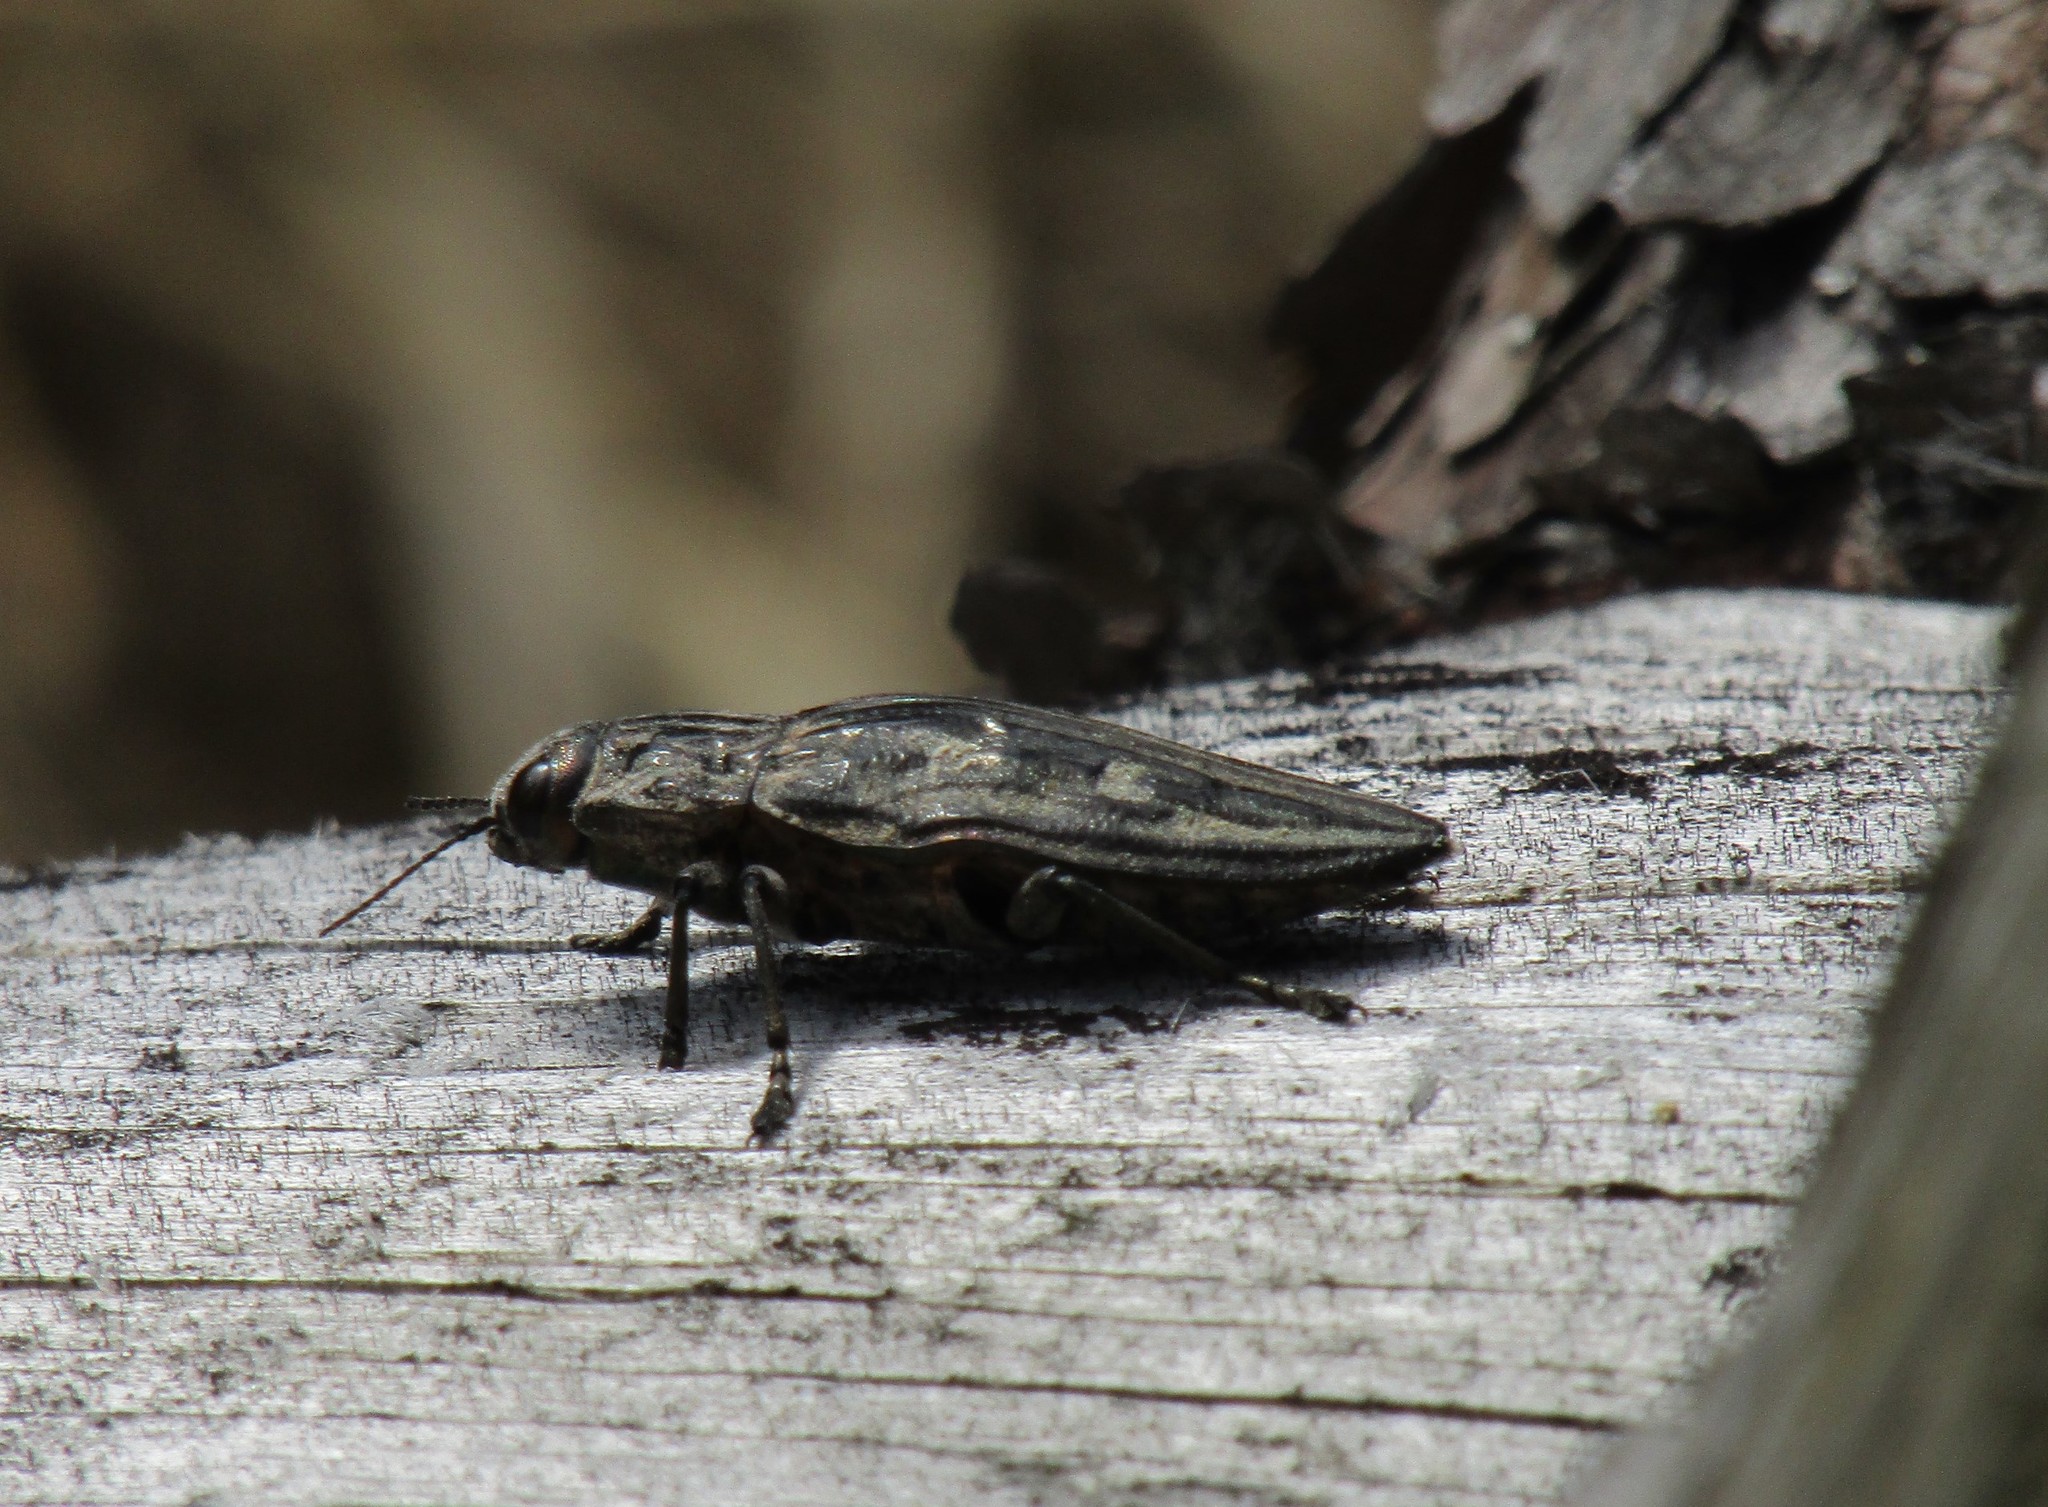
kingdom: Animalia
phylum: Arthropoda
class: Insecta
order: Coleoptera
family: Buprestidae
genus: Chalcophora
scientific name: Chalcophora mariana
